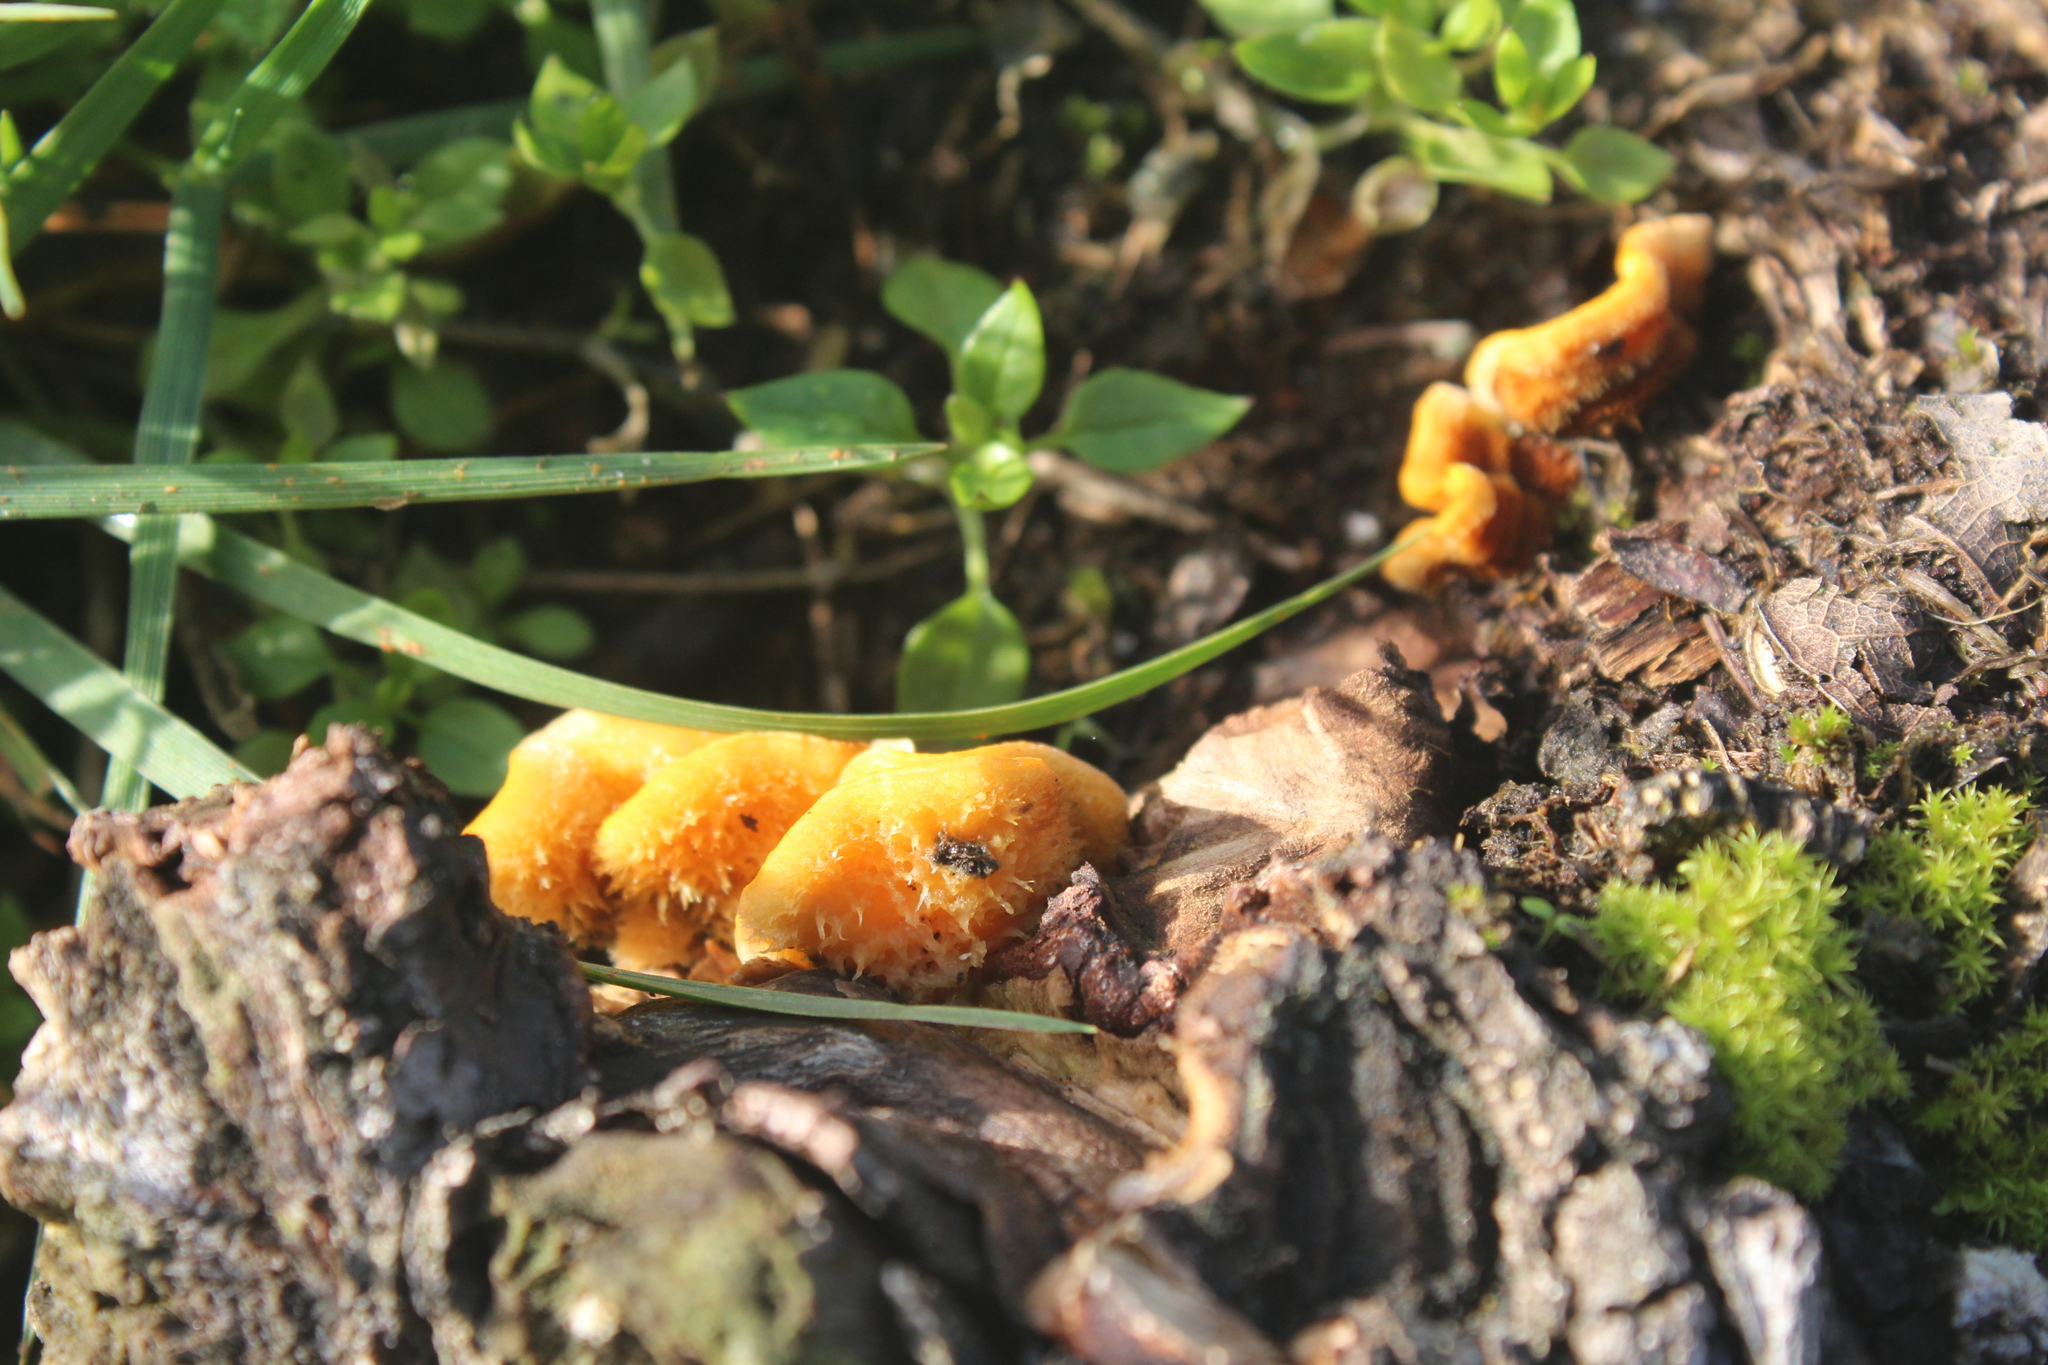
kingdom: Fungi
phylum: Basidiomycota
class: Agaricomycetes
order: Russulales
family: Stereaceae
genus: Stereum
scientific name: Stereum hirsutum
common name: Hairy curtain crust
